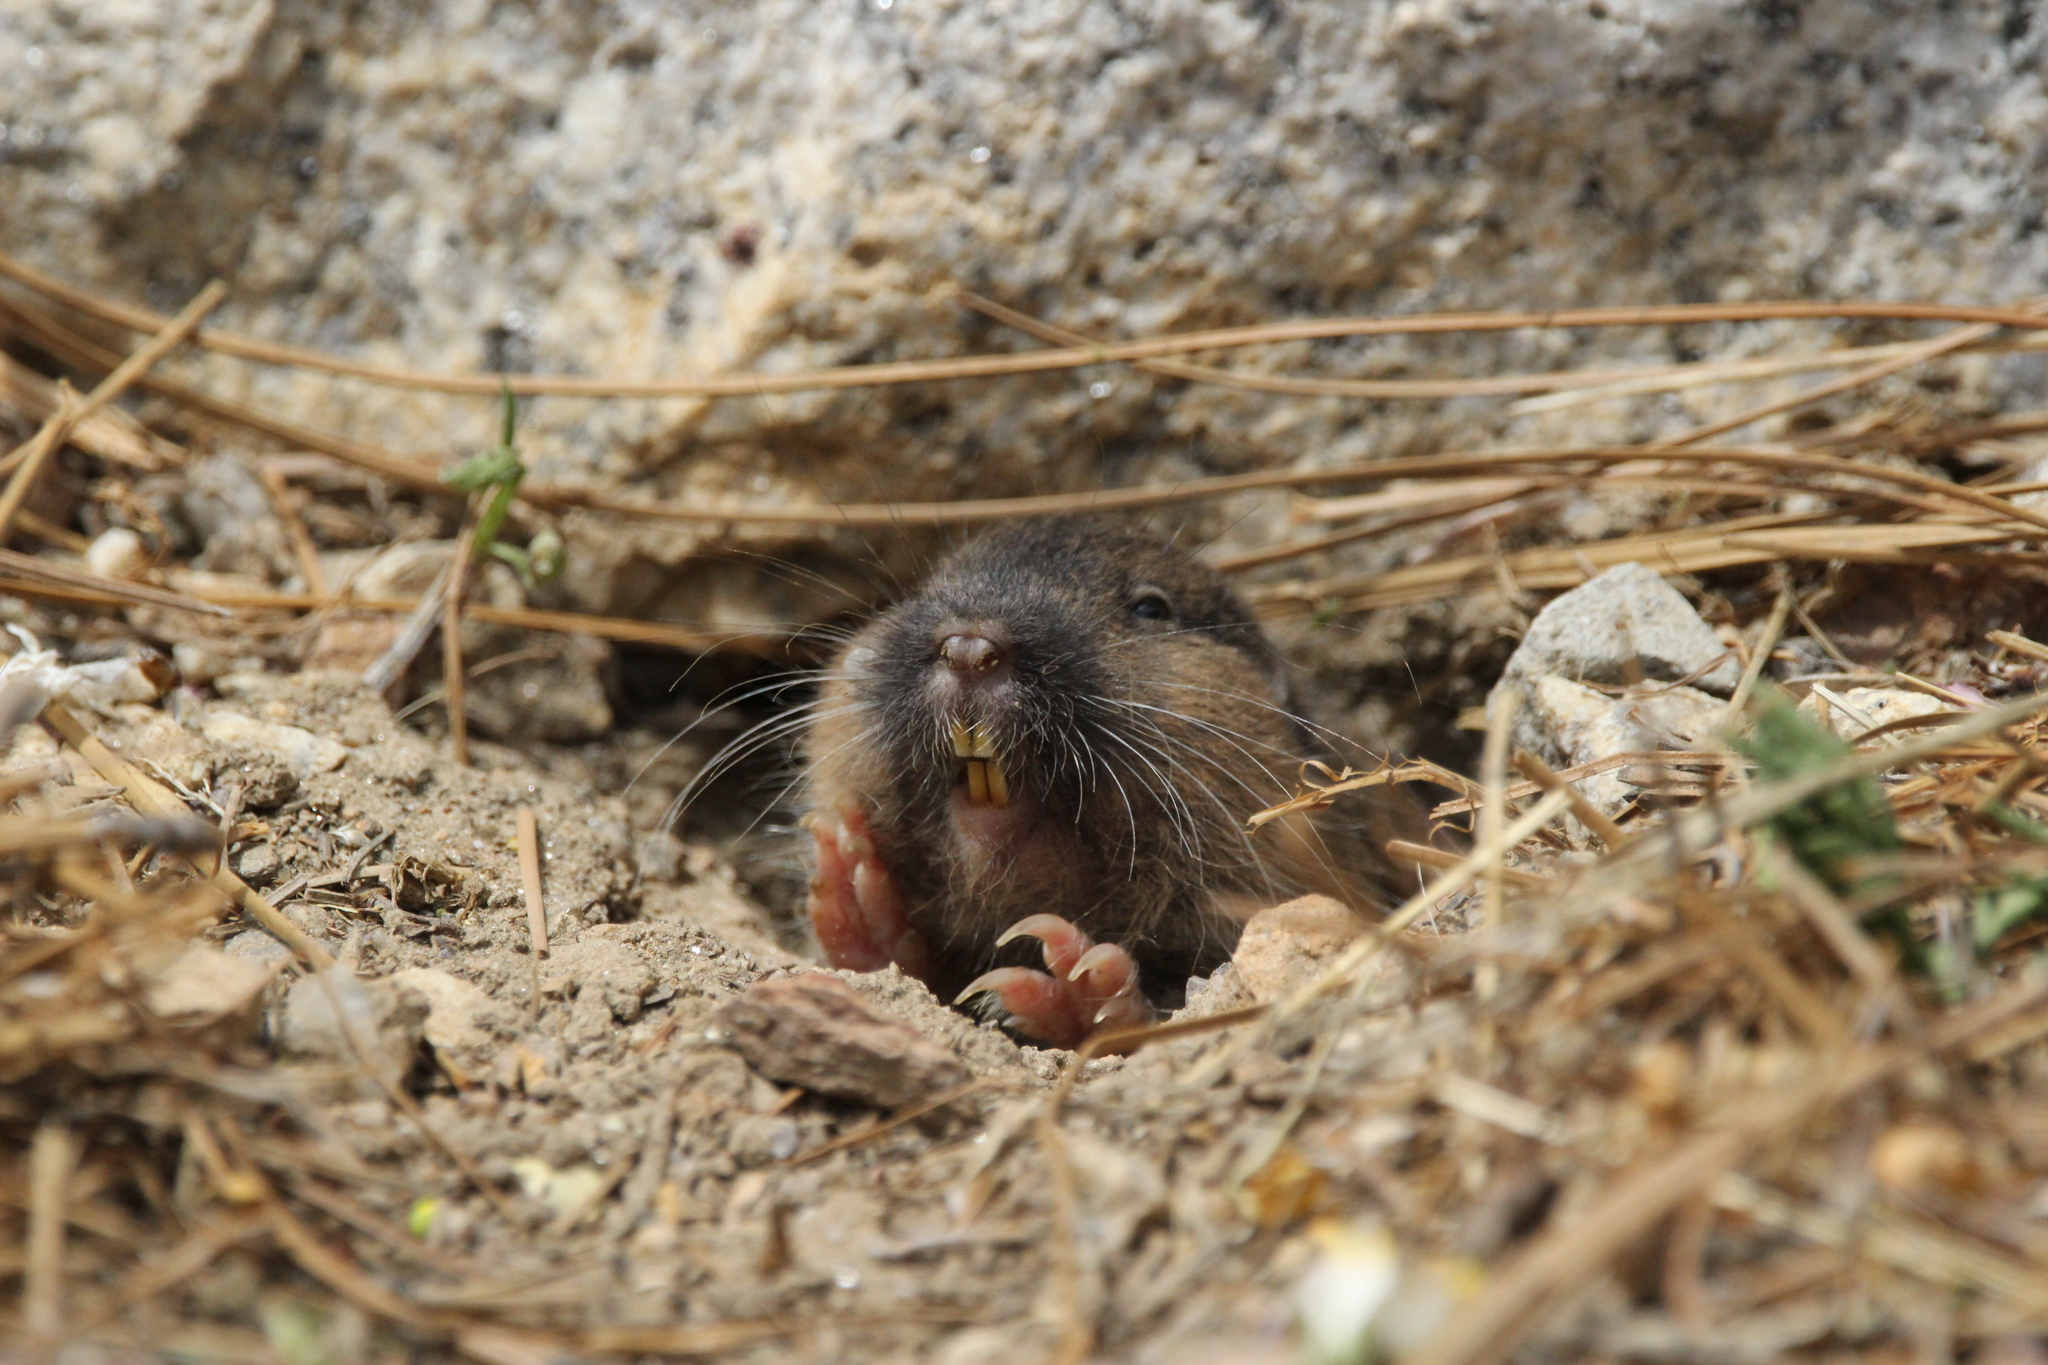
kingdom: Animalia
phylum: Chordata
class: Mammalia
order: Rodentia
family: Geomyidae
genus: Thomomys
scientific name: Thomomys umbrinus
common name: Southern pocket gopher
